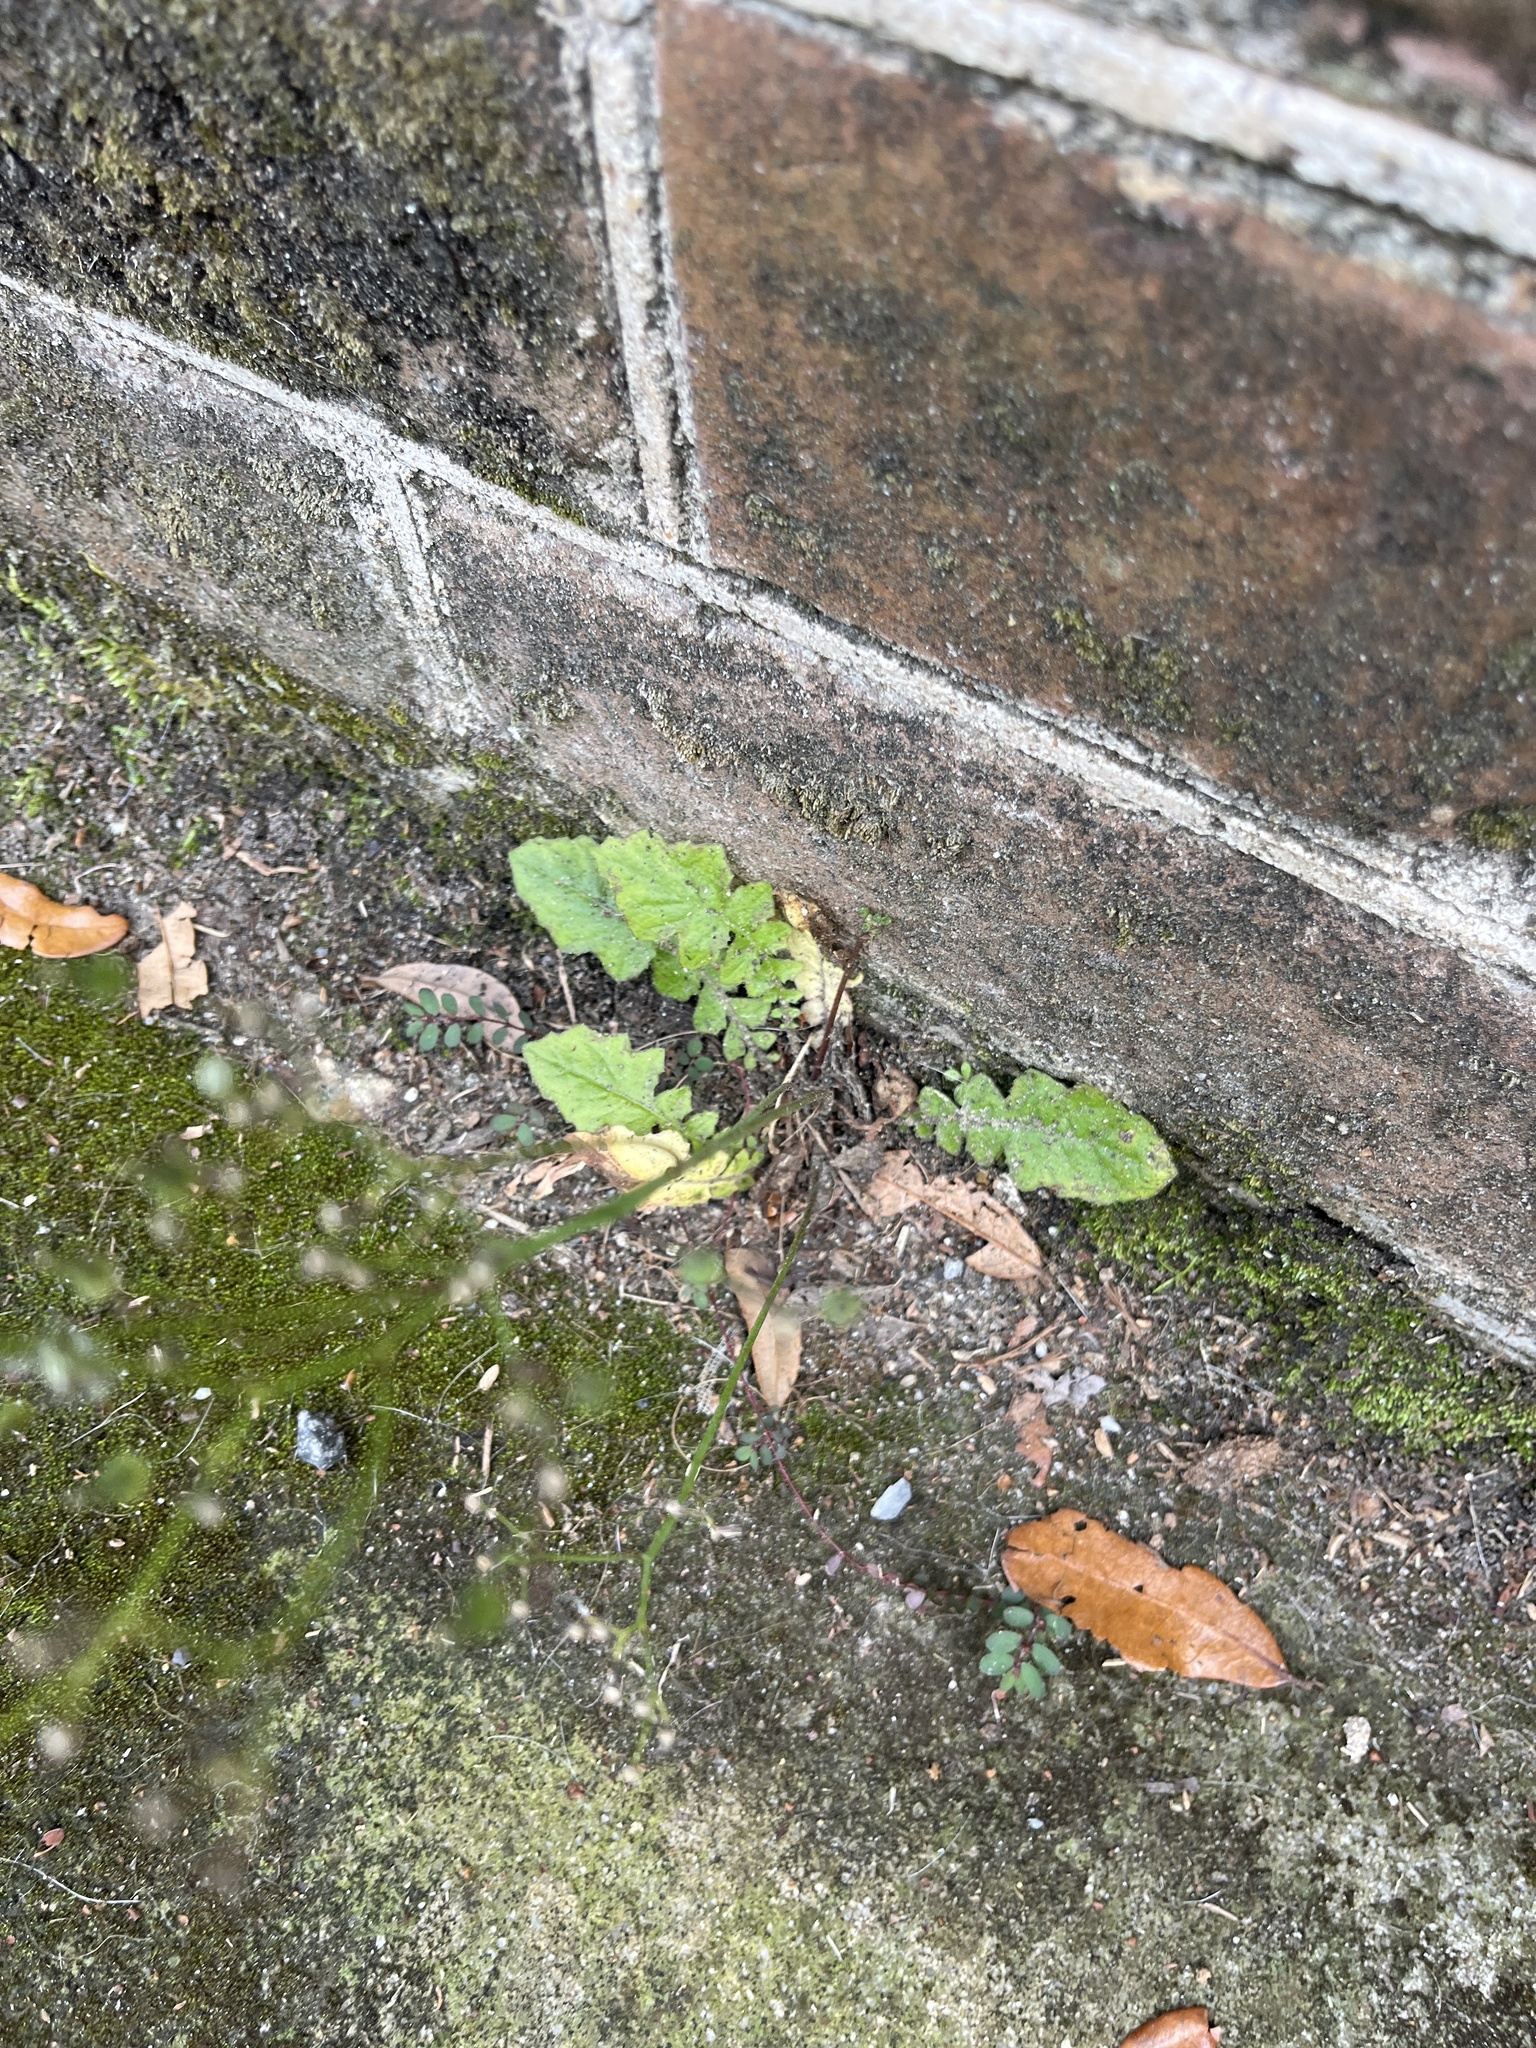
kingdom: Plantae
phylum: Tracheophyta
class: Magnoliopsida
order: Asterales
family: Asteraceae
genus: Youngia
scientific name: Youngia japonica
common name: Oriental false hawksbeard
